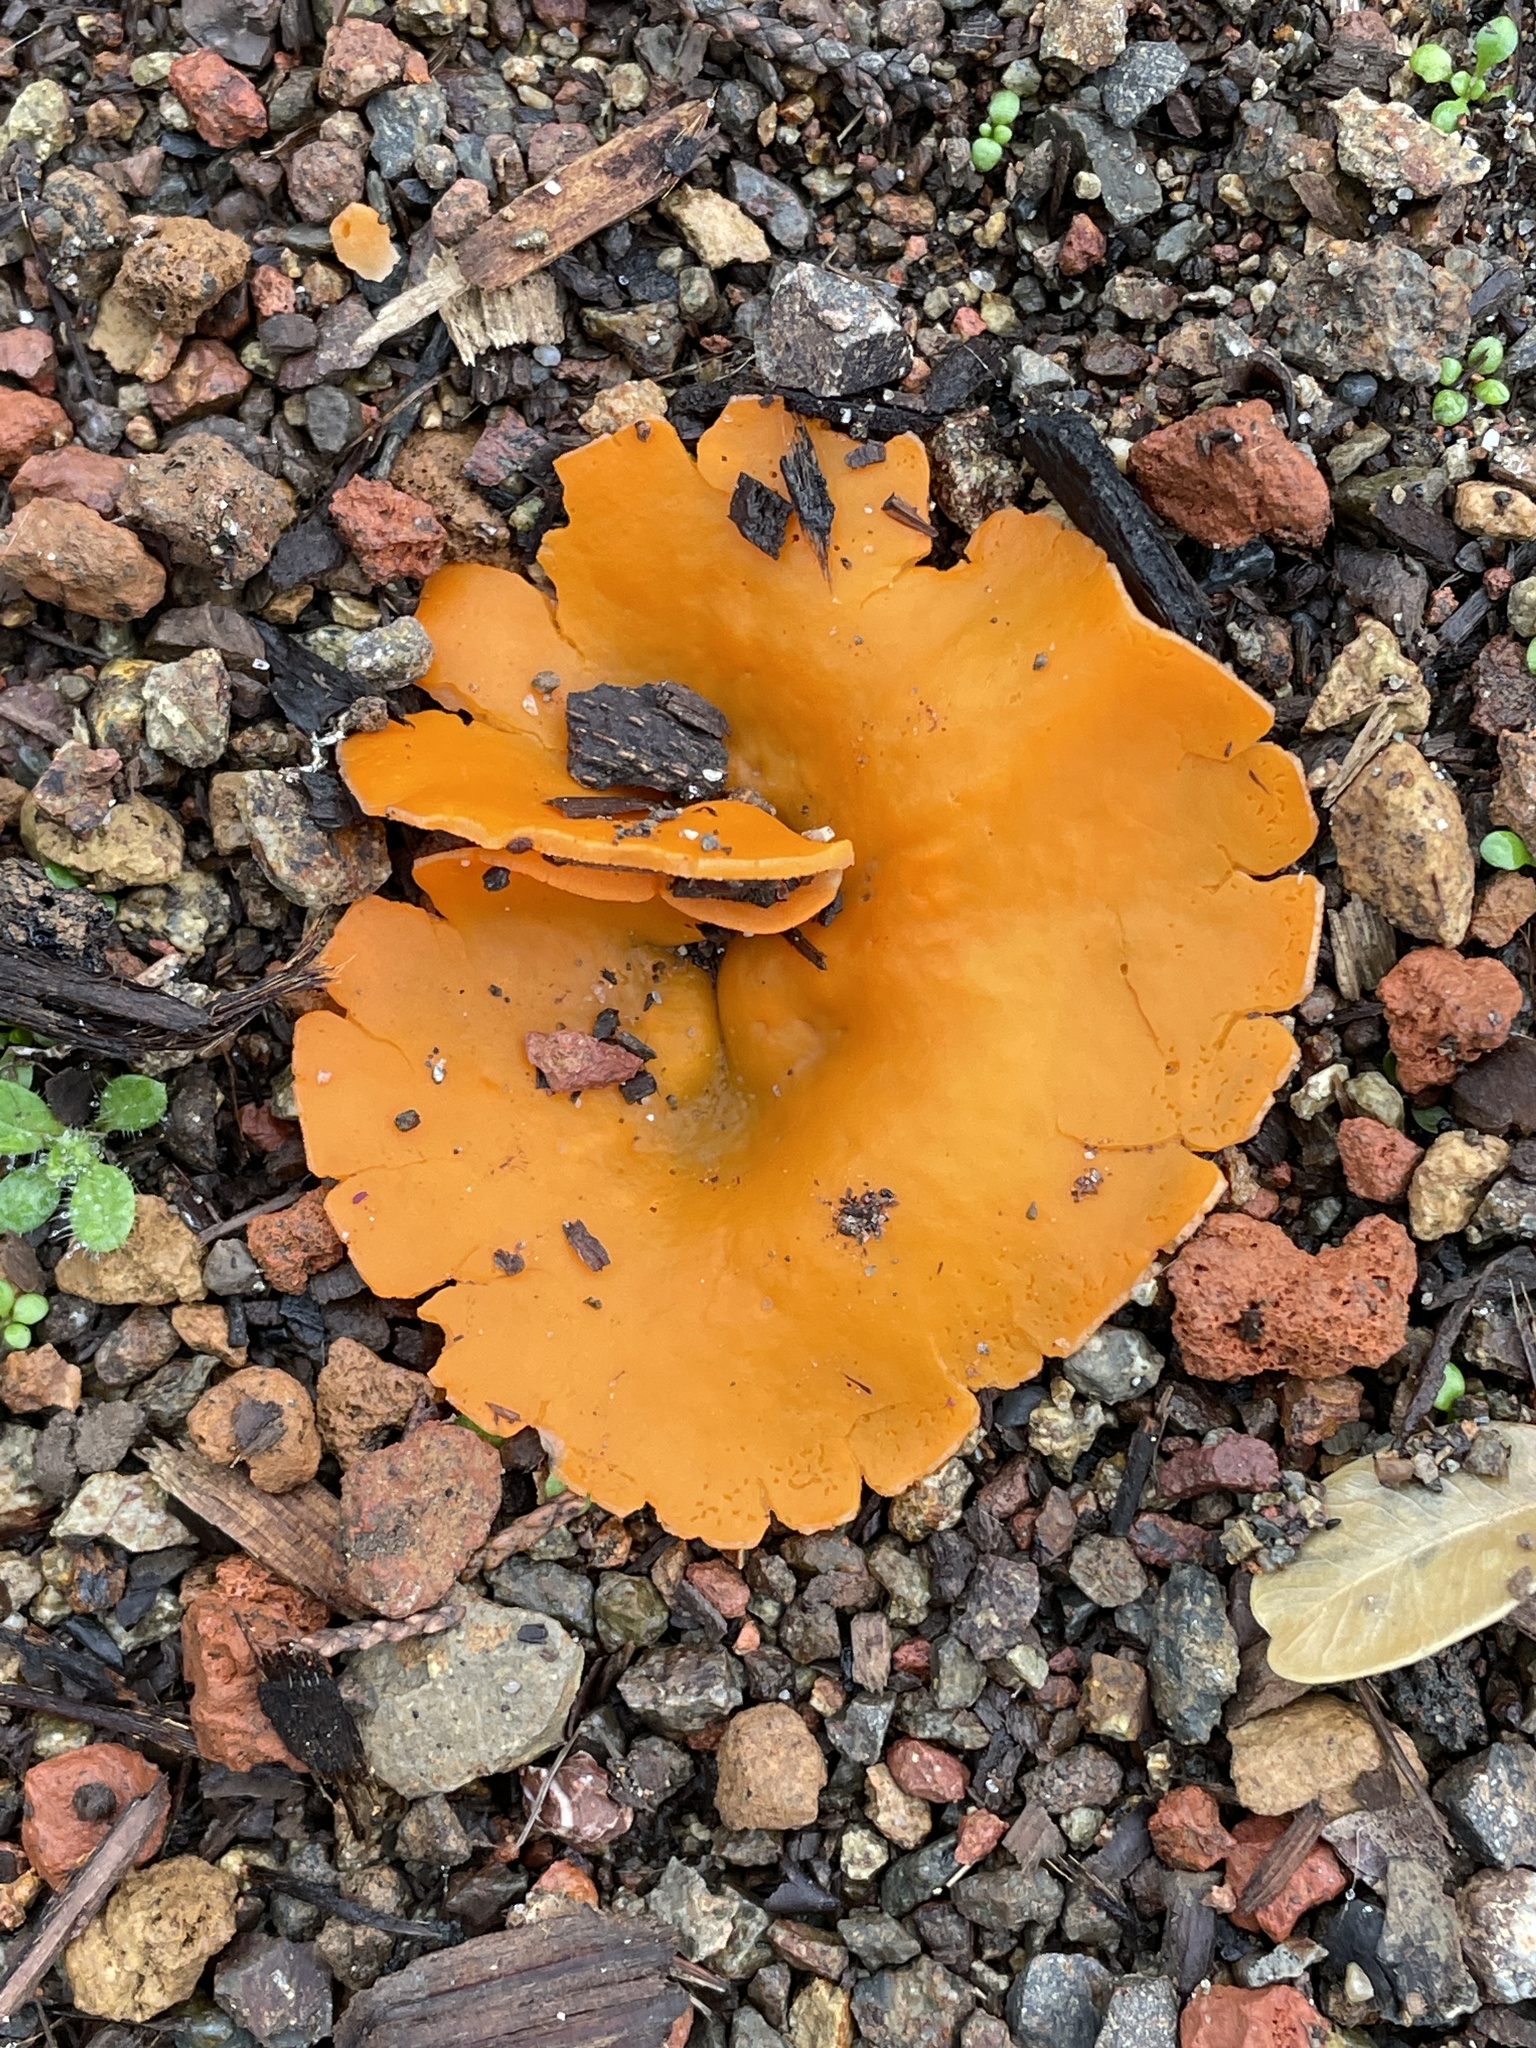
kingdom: Fungi
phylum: Ascomycota
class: Pezizomycetes
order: Pezizales
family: Pyronemataceae
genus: Aleuria
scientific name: Aleuria aurantia
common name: Orange peel fungus
